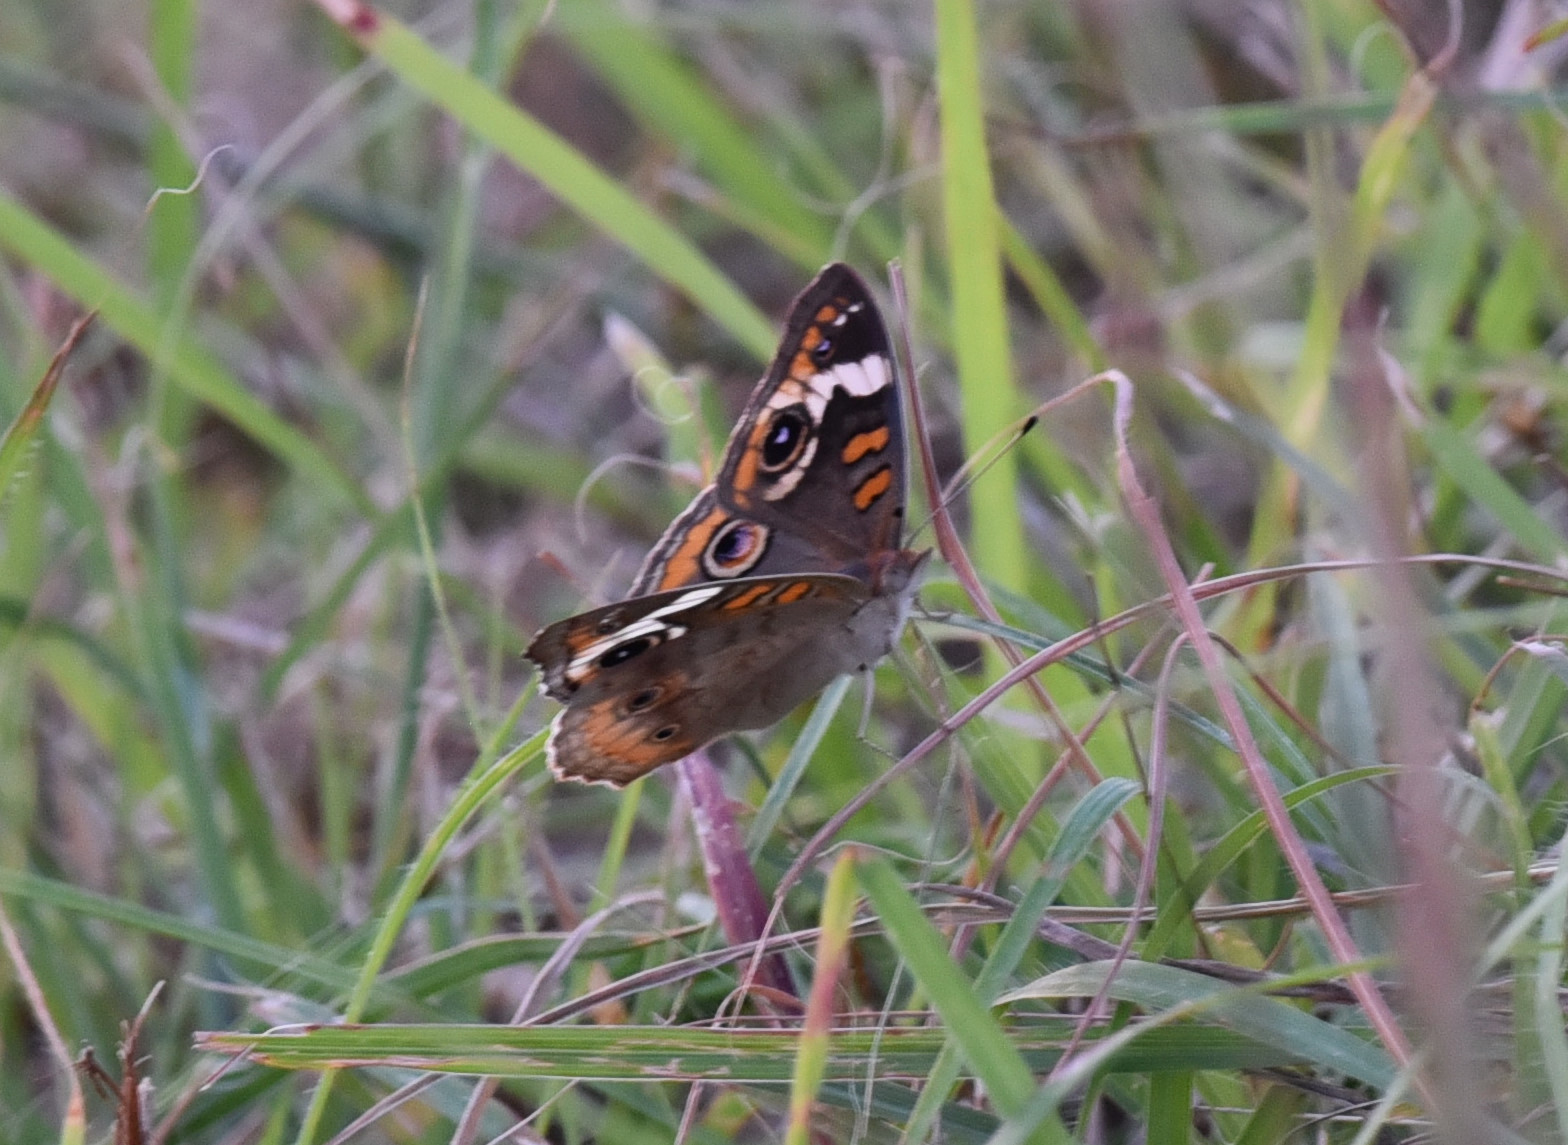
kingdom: Animalia
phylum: Arthropoda
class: Insecta
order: Lepidoptera
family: Nymphalidae
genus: Junonia
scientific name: Junonia coenia
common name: Common buckeye
